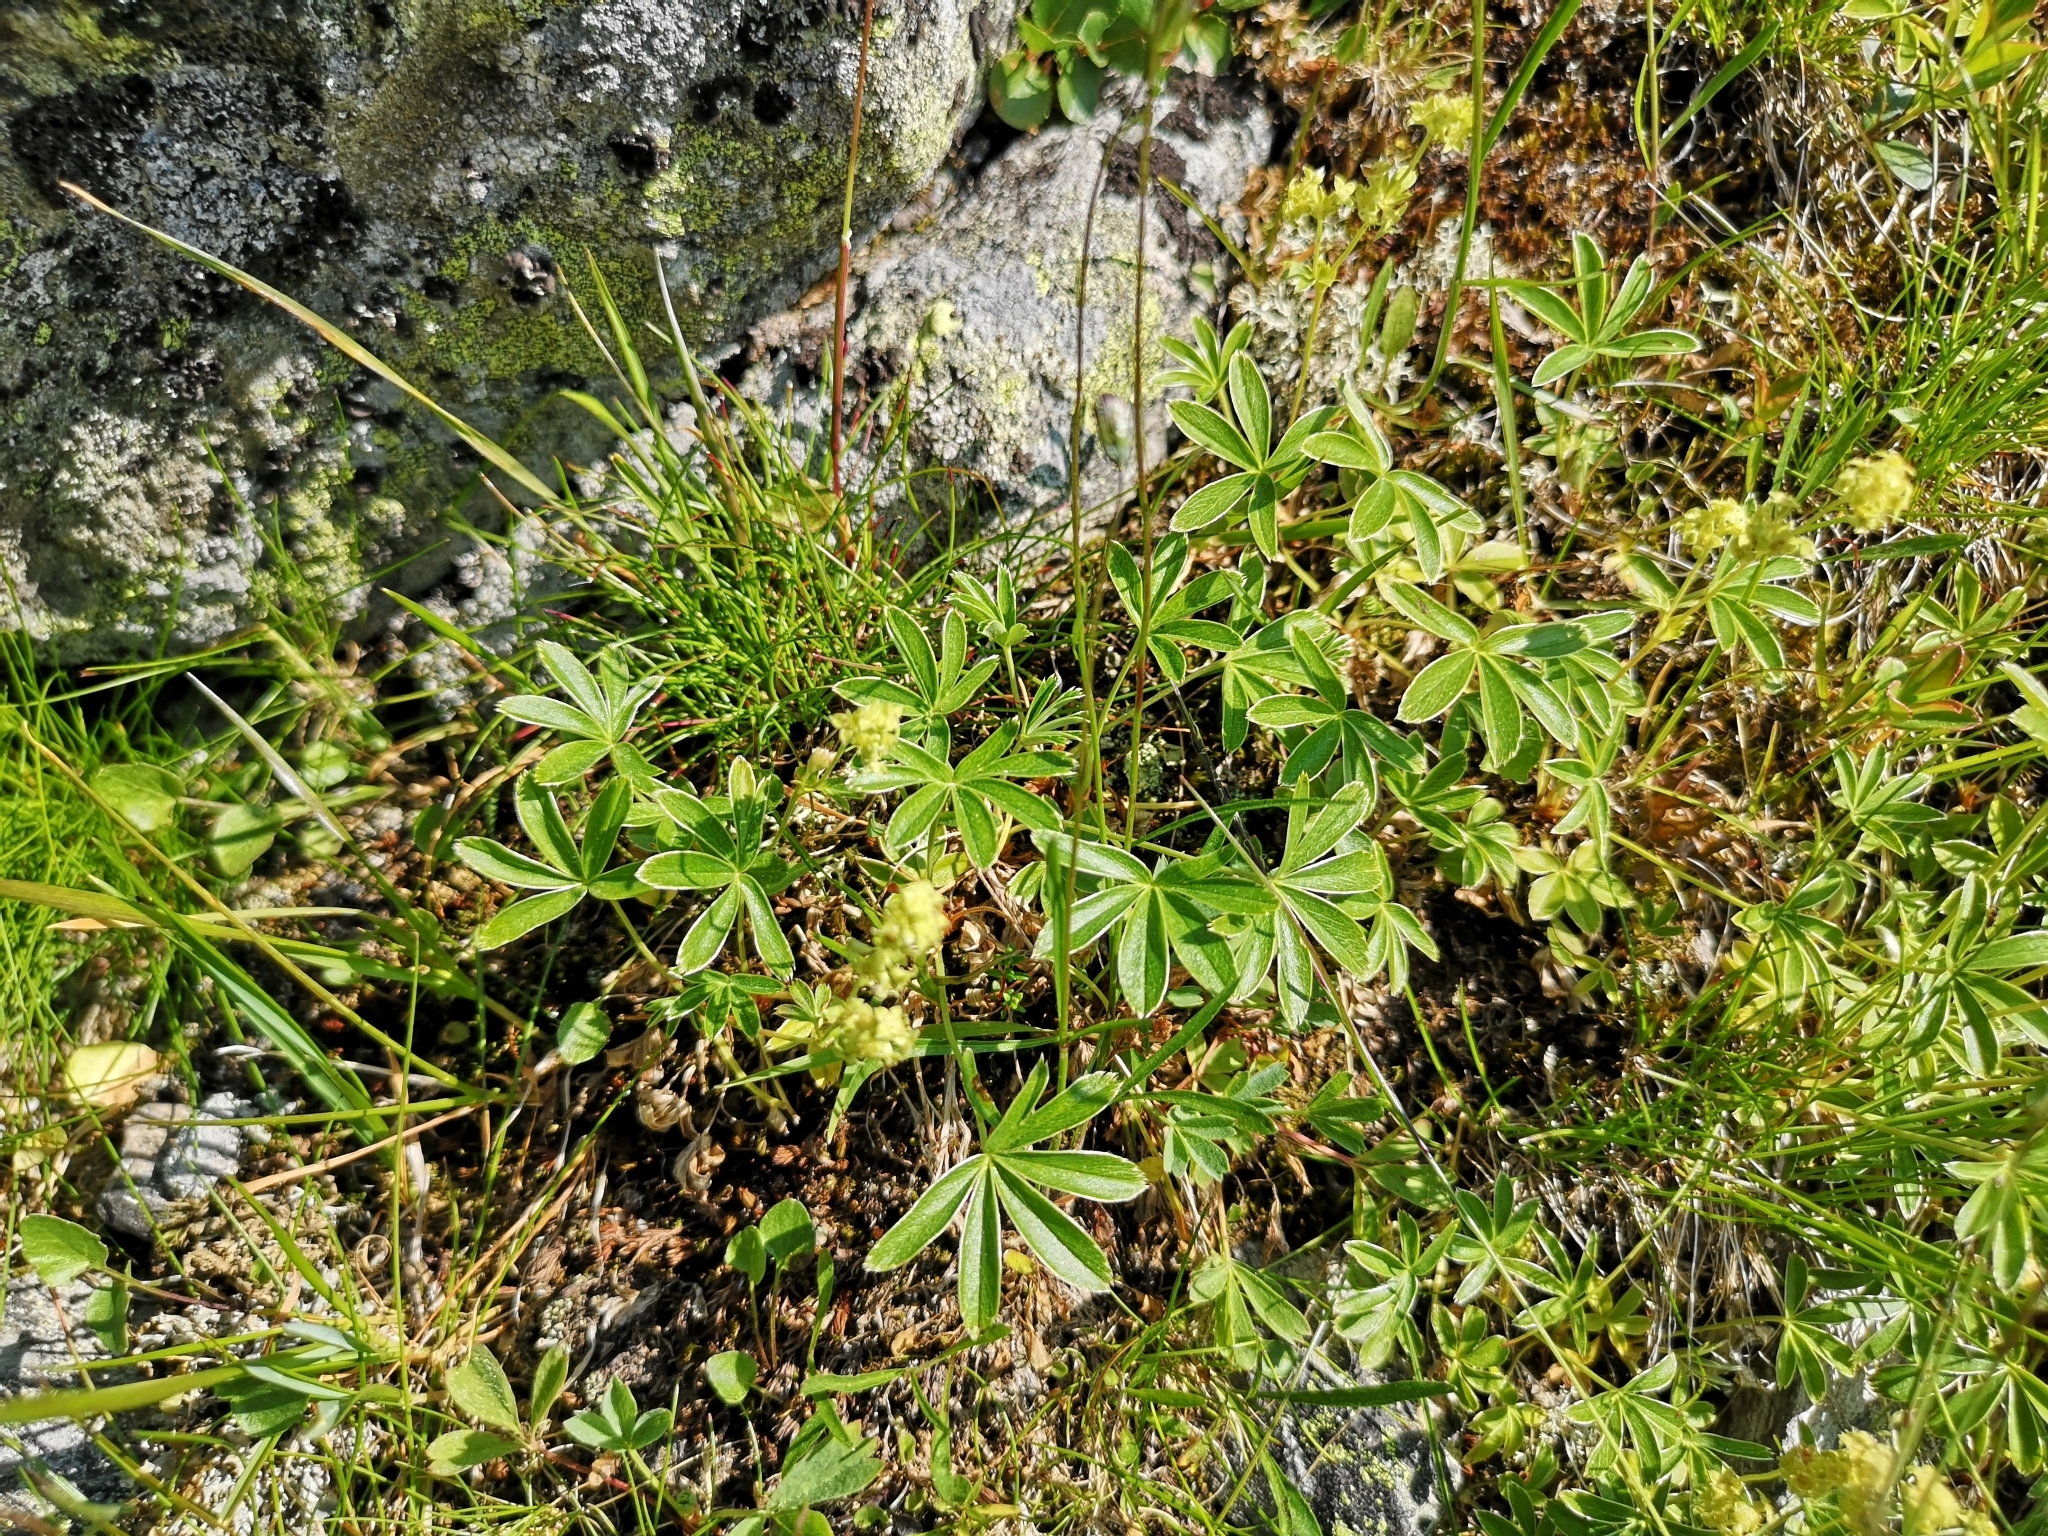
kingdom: Plantae
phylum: Tracheophyta
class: Magnoliopsida
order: Rosales
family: Rosaceae
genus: Alchemilla
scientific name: Alchemilla alpina
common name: Alpine lady's-mantle
